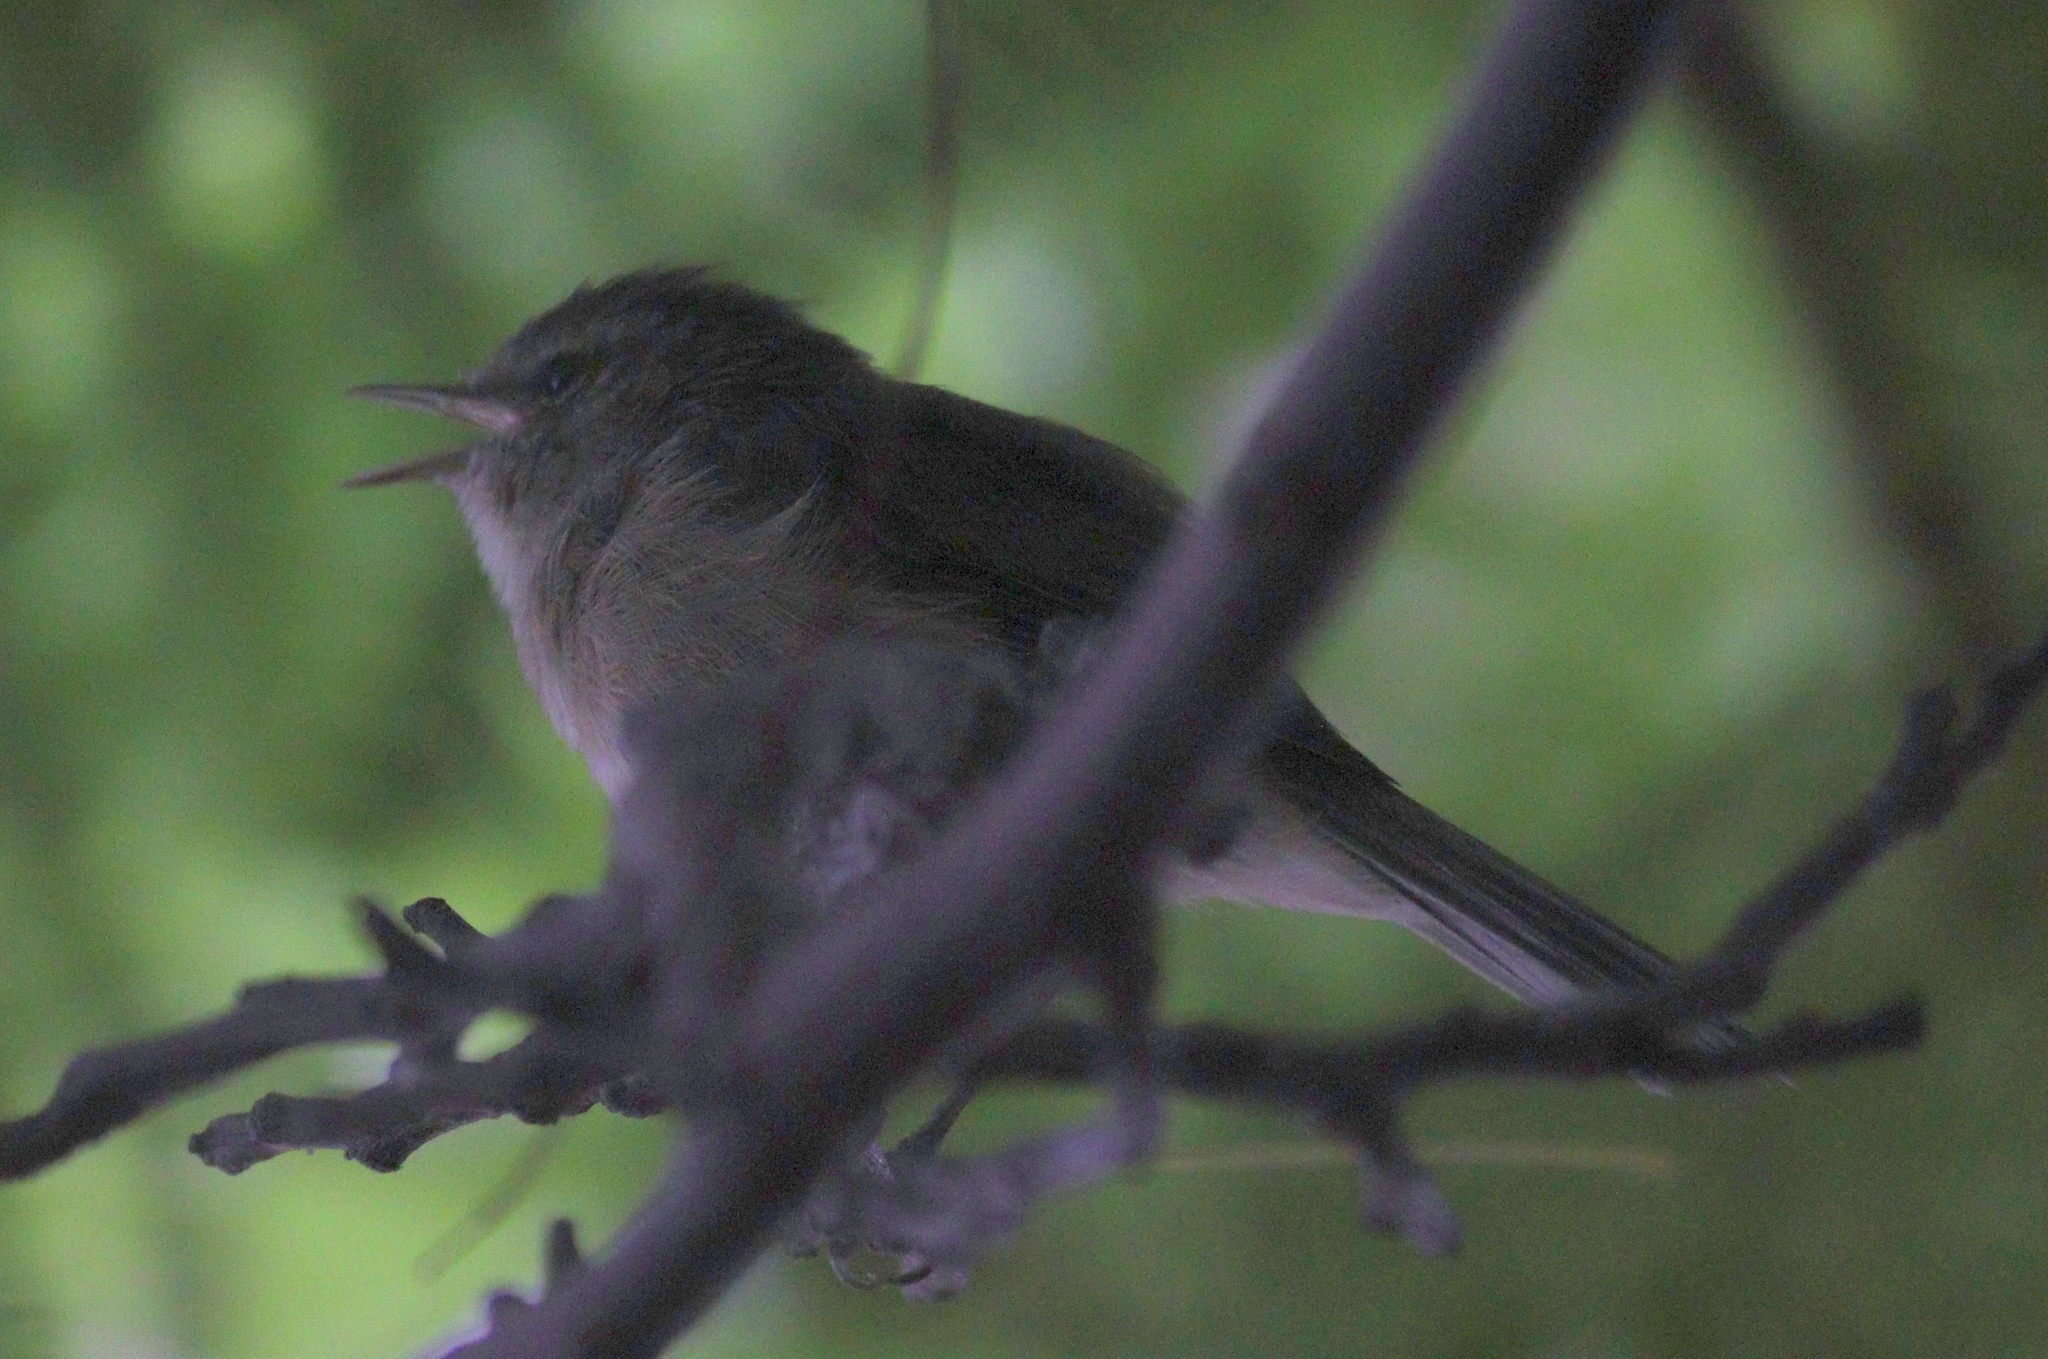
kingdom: Animalia
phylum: Chordata
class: Aves
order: Passeriformes
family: Phylloscopidae
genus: Phylloscopus
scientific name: Phylloscopus canariensis
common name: Canary islands chiffchaff
